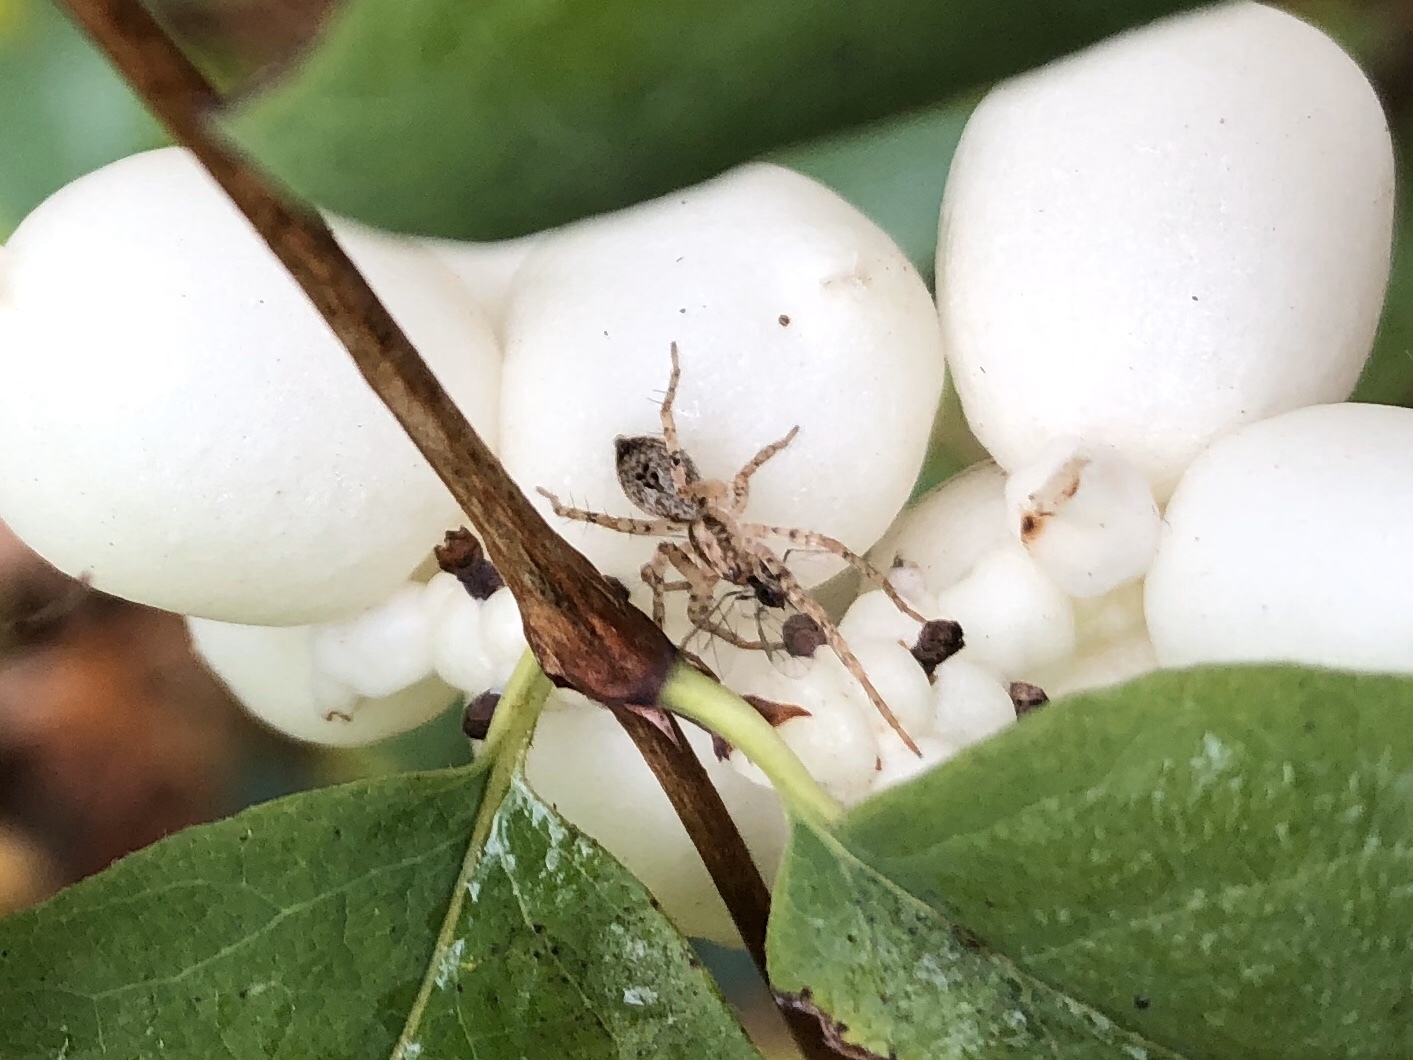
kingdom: Animalia
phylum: Arthropoda
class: Arachnida
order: Araneae
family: Anyphaenidae
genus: Anyphaena
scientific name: Anyphaena accentuata
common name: Buzzing spider
